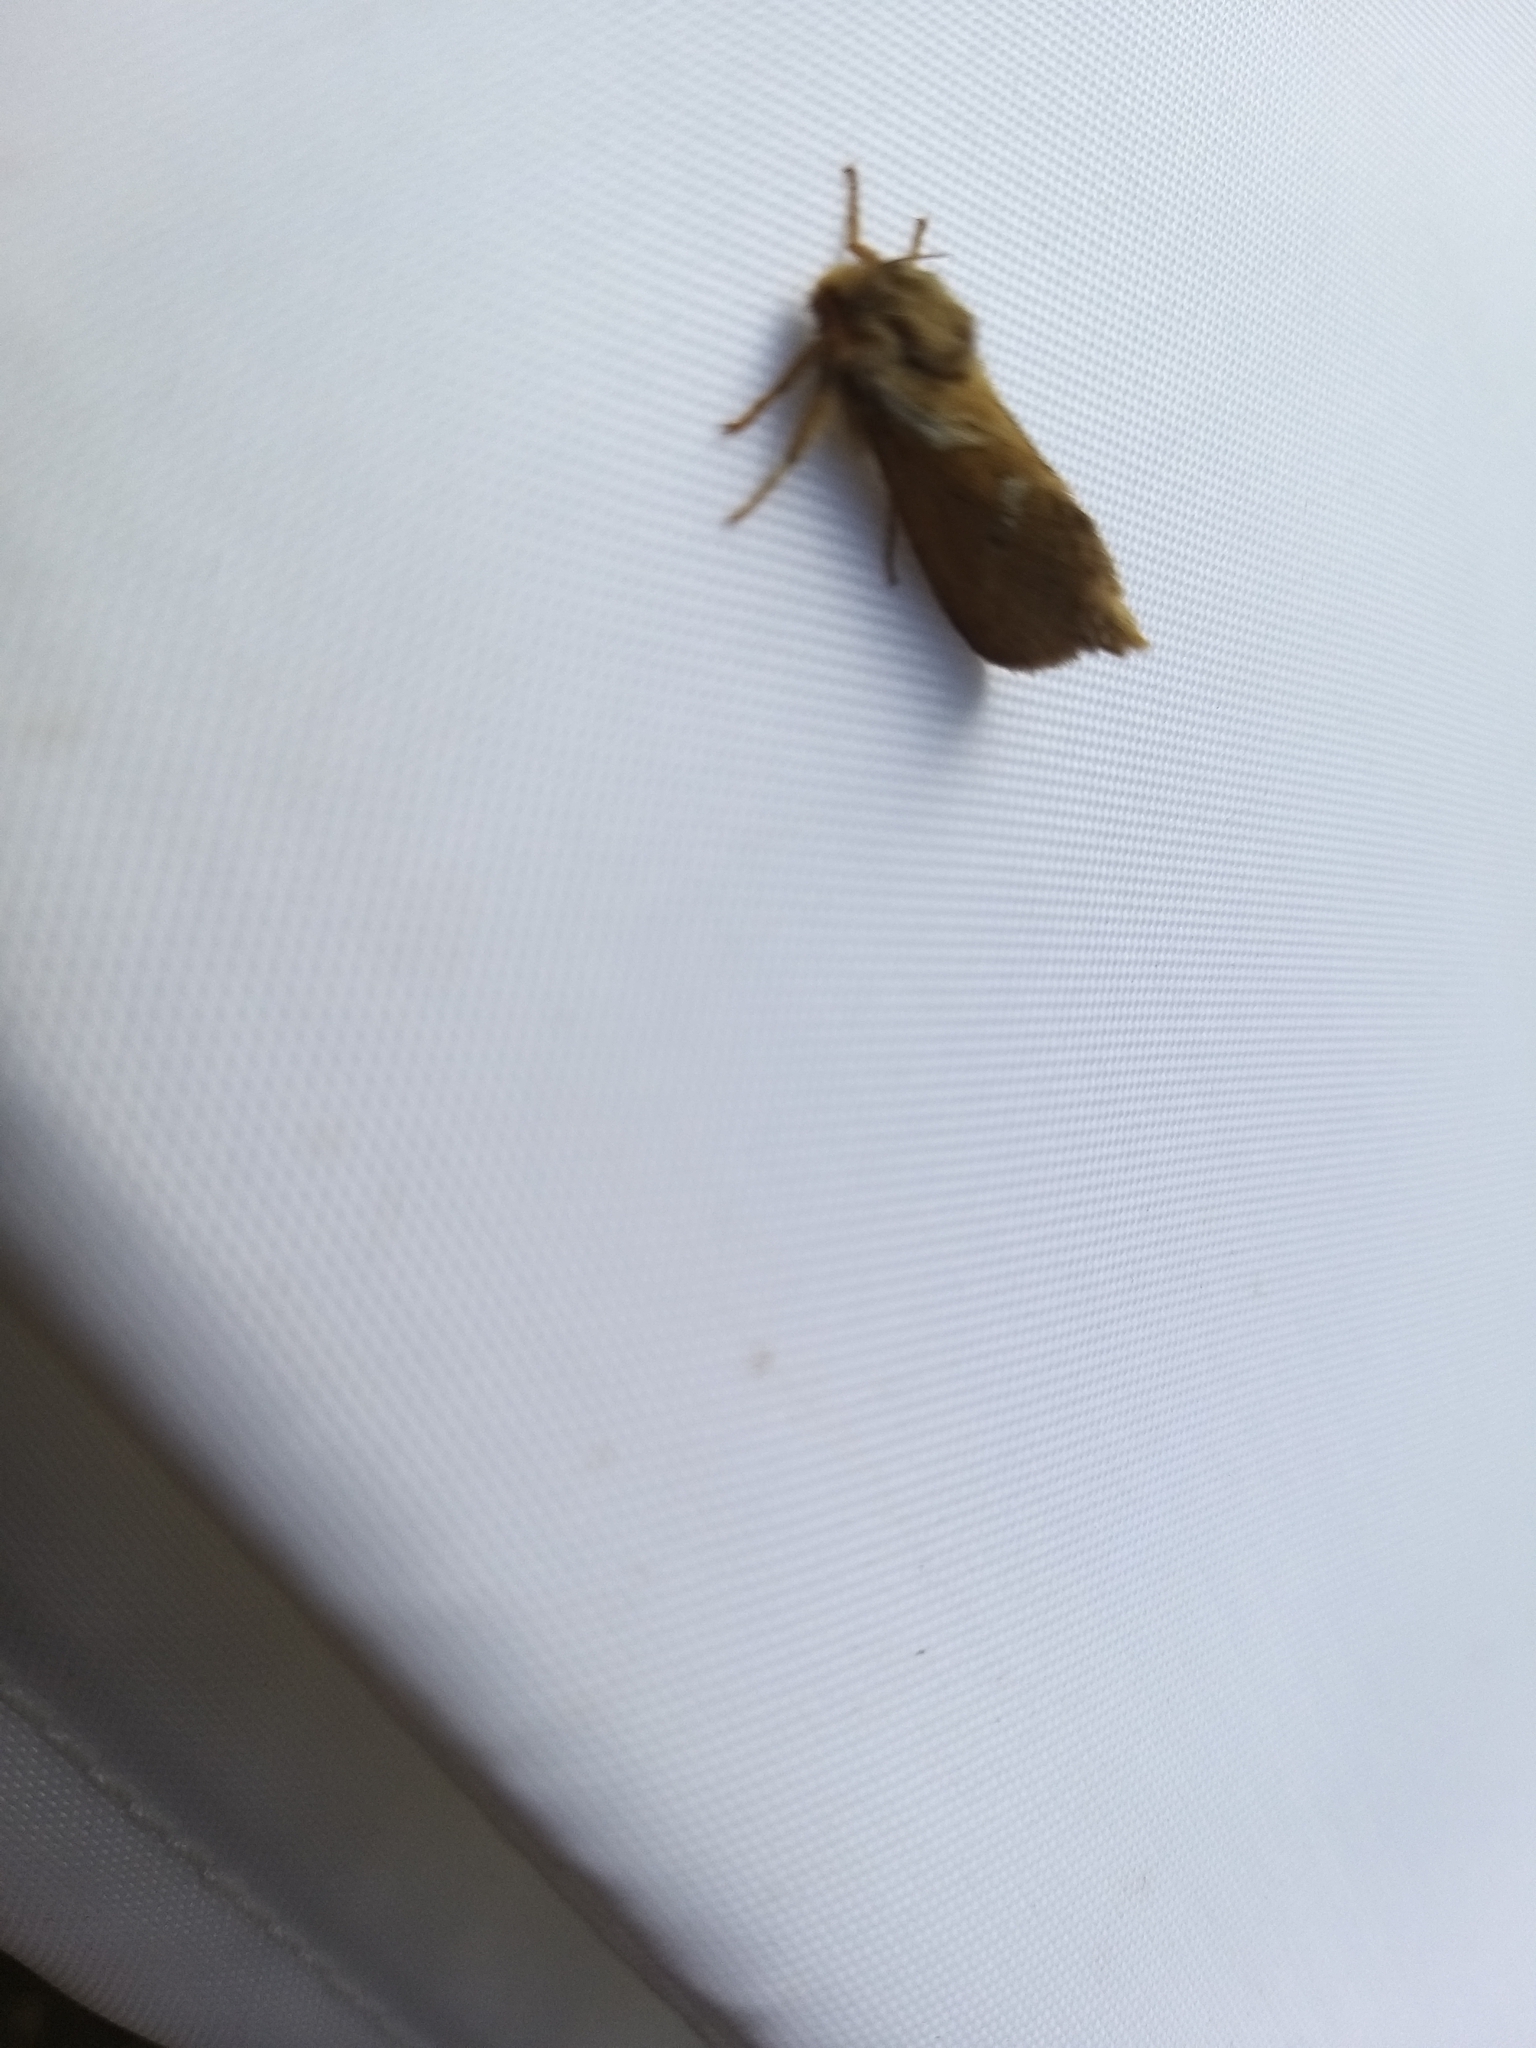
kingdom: Animalia
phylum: Arthropoda
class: Insecta
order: Lepidoptera
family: Hepialidae
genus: Korscheltellus
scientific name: Korscheltellus lupulina
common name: Common swift
